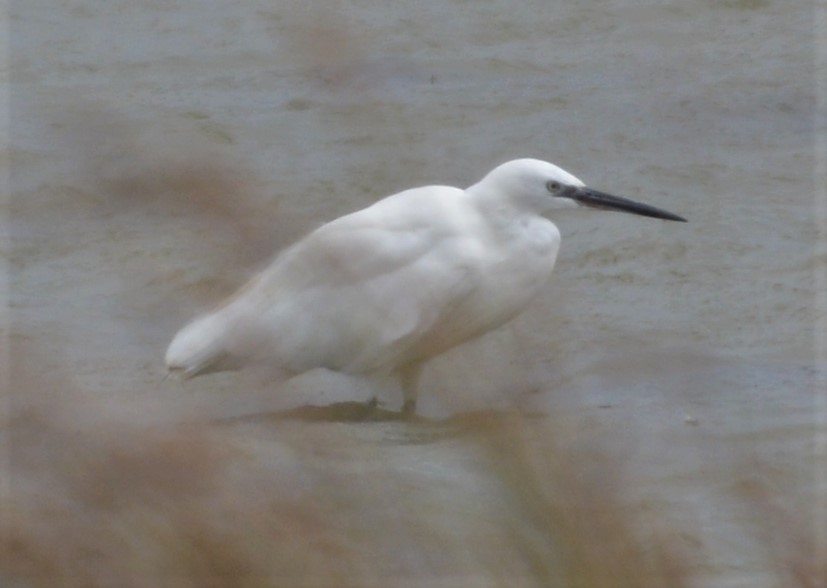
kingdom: Animalia
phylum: Chordata
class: Aves
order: Pelecaniformes
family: Ardeidae
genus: Egretta
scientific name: Egretta garzetta
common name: Little egret
